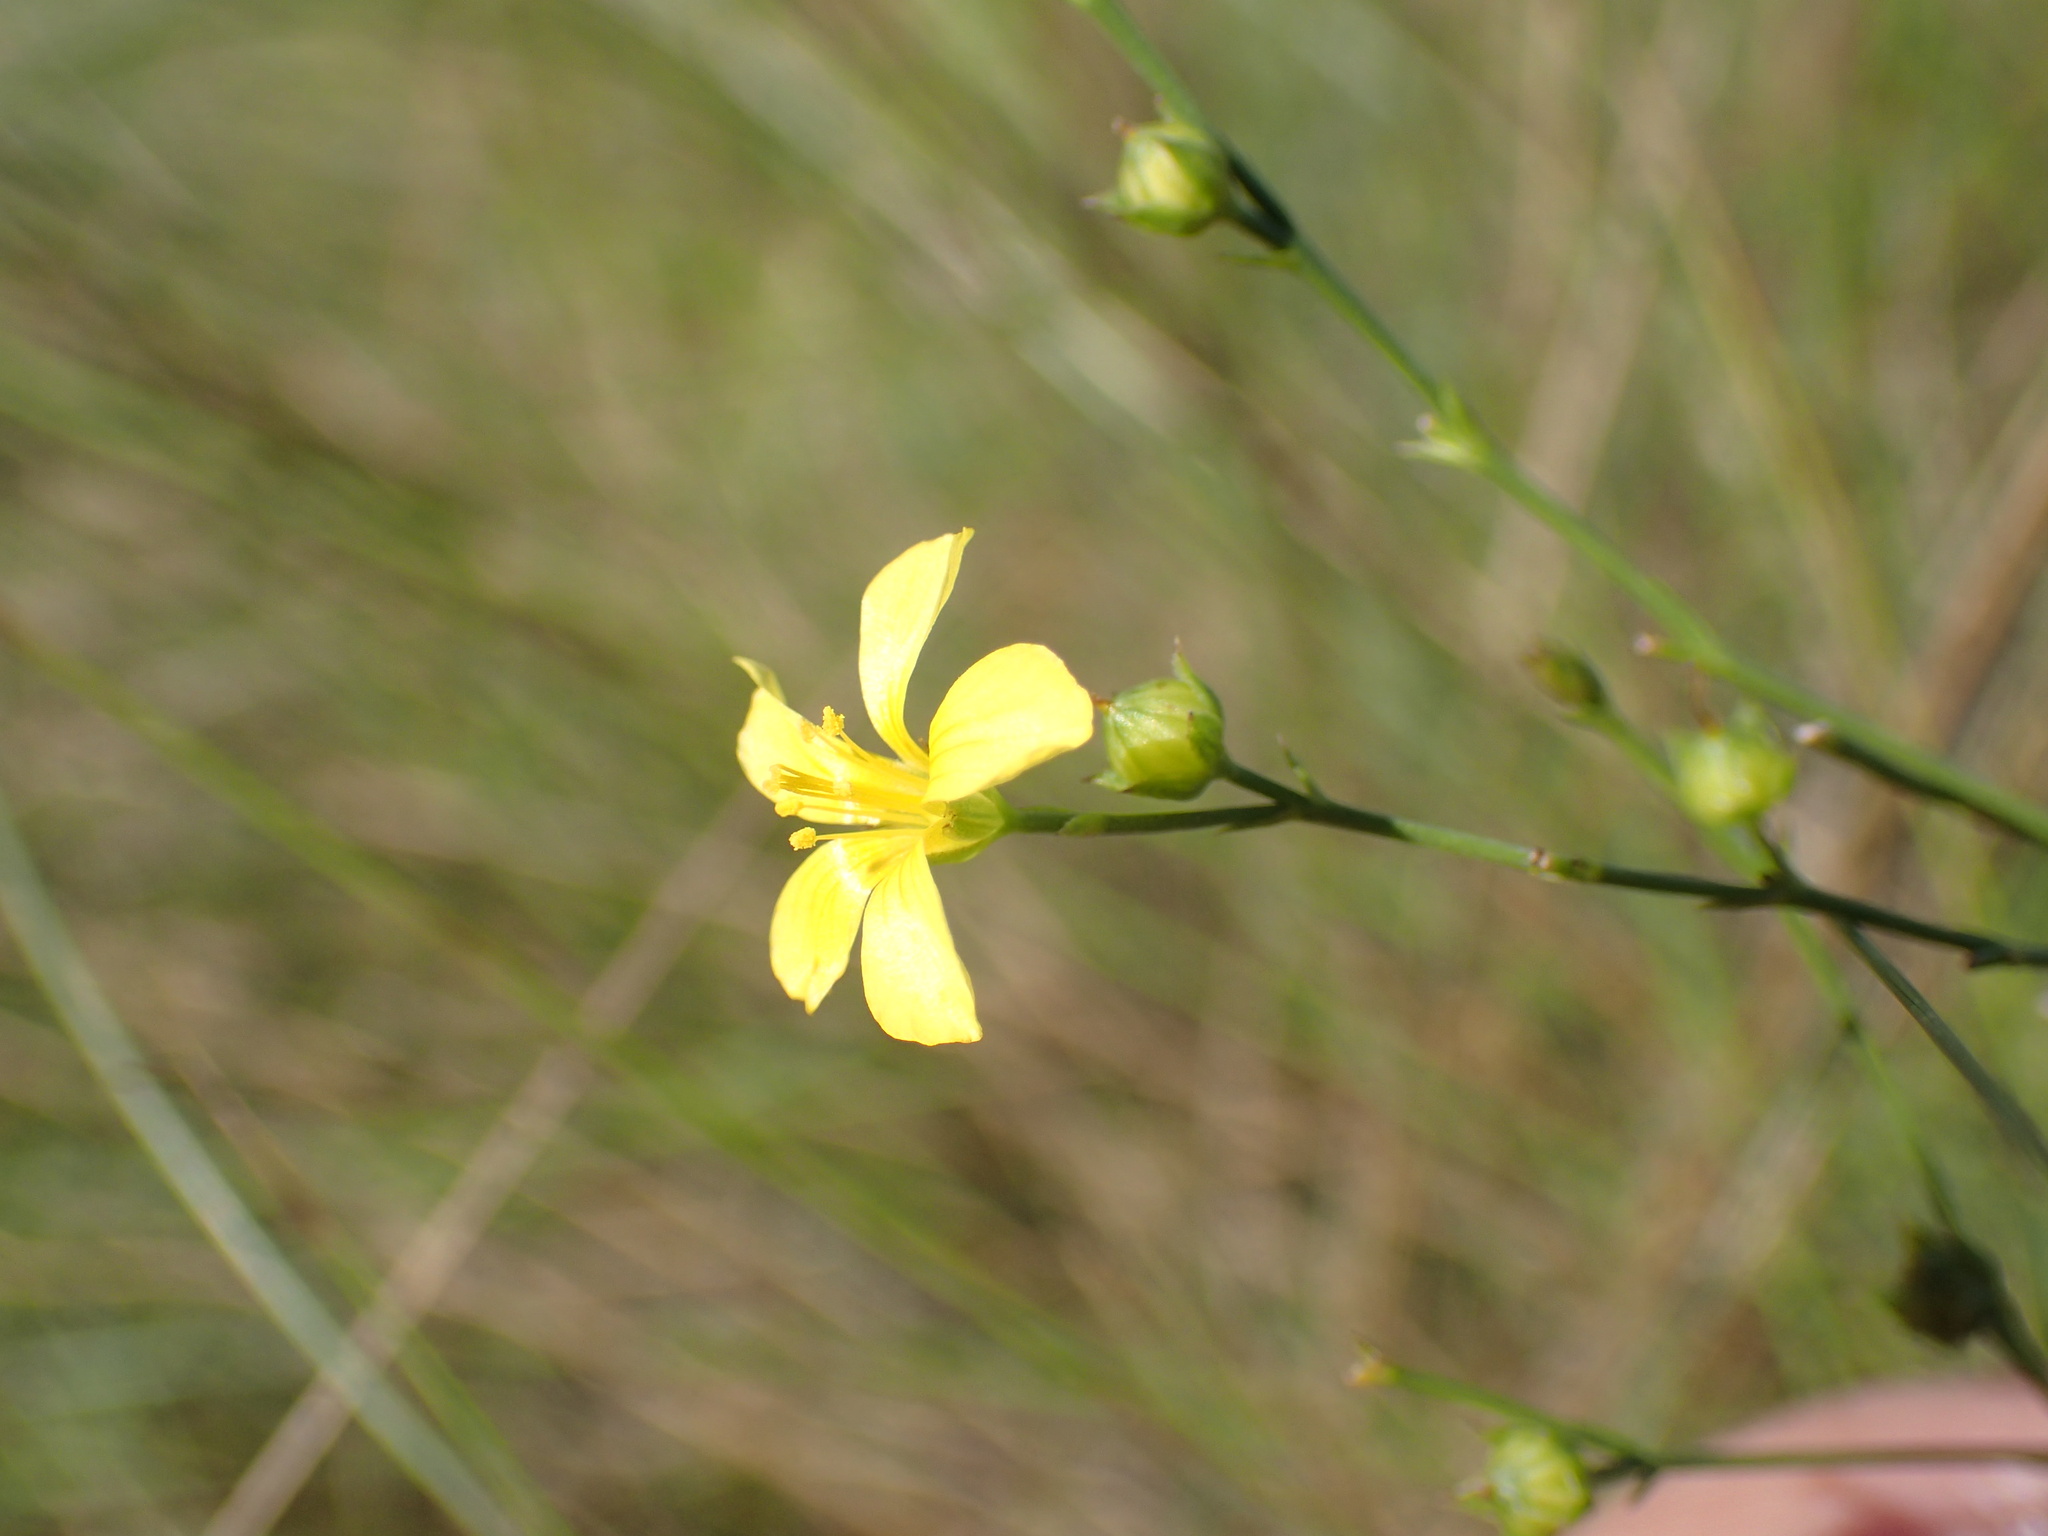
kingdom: Plantae
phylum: Tracheophyta
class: Magnoliopsida
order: Malpighiales
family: Linaceae
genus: Linum
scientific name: Linum thunbergii
